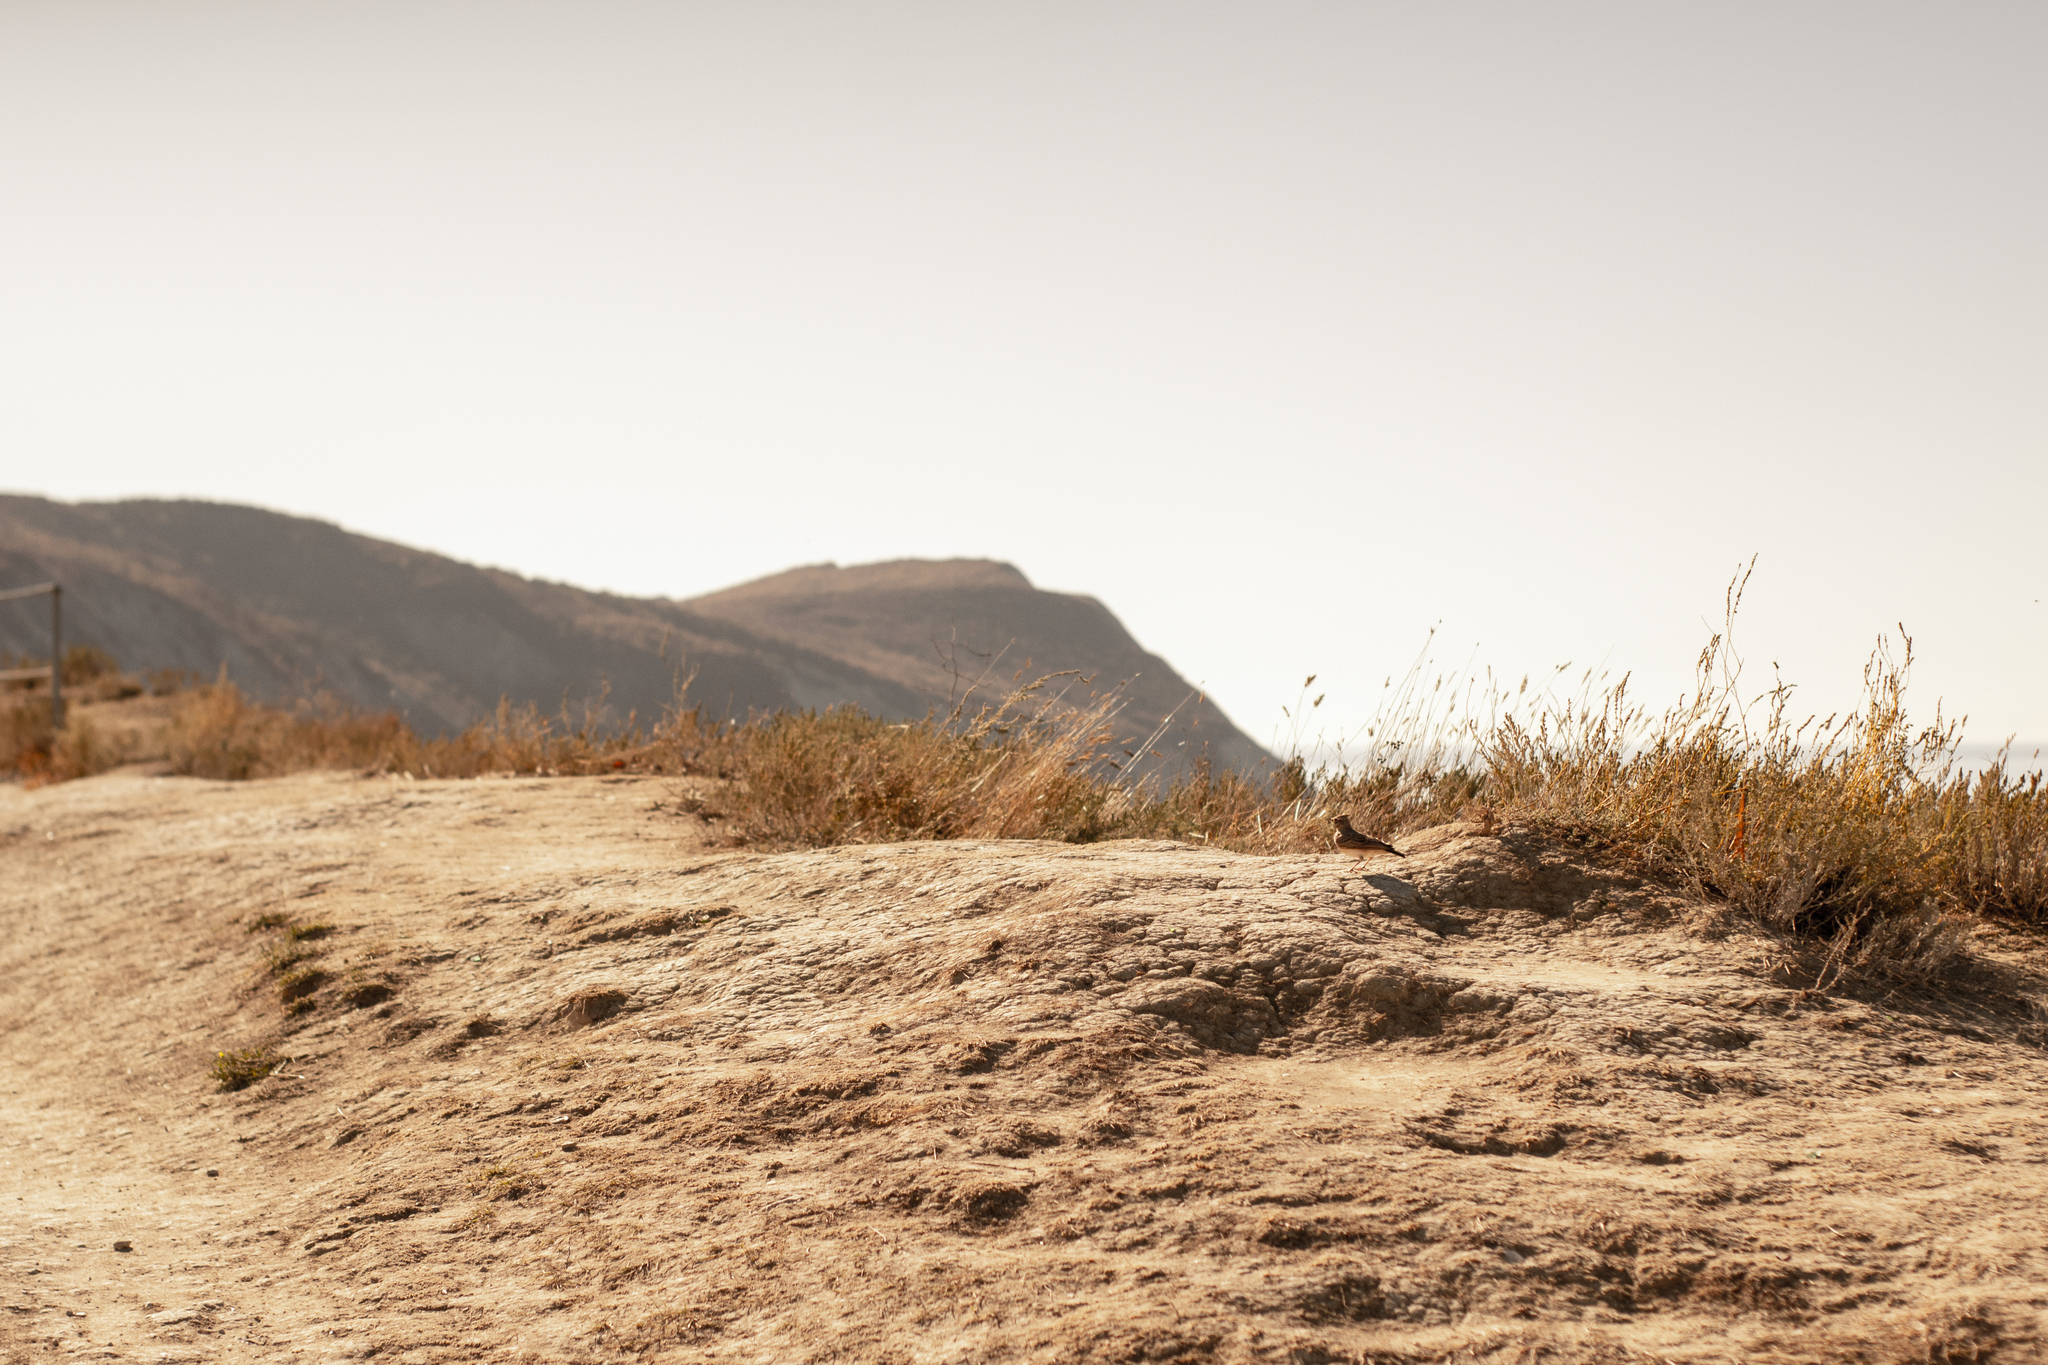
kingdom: Animalia
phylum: Chordata
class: Aves
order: Passeriformes
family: Alaudidae
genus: Galerida
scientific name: Galerida cristata
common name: Crested lark
